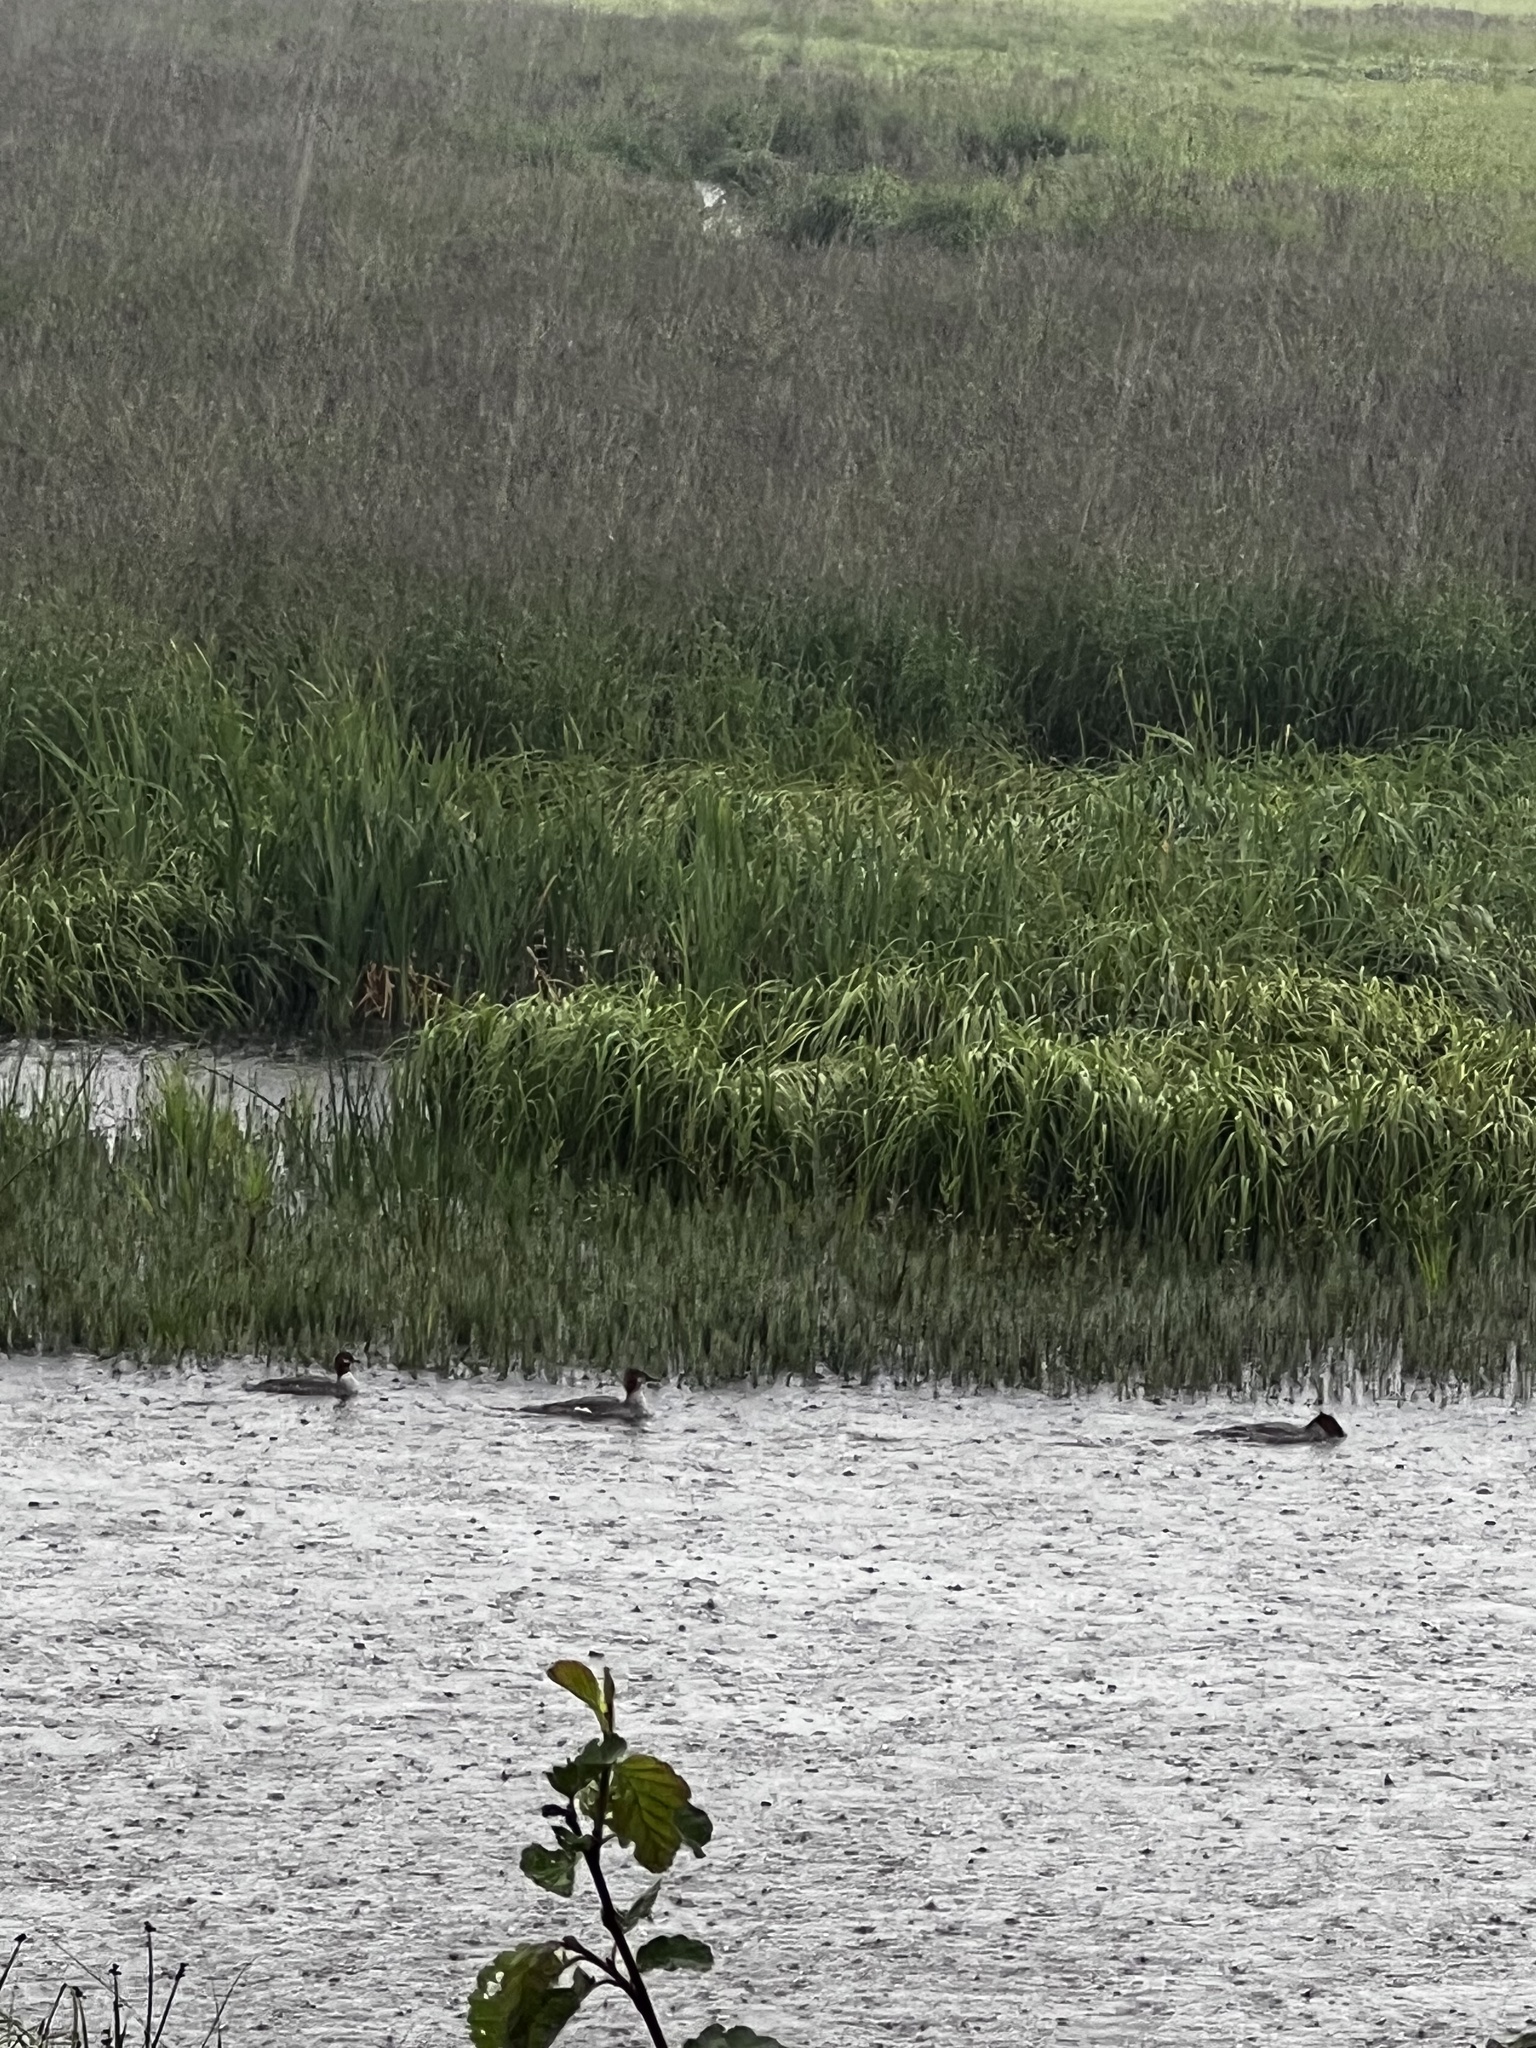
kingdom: Animalia
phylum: Chordata
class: Aves
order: Anseriformes
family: Anatidae
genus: Mergus
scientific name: Mergus merganser
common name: Common merganser
